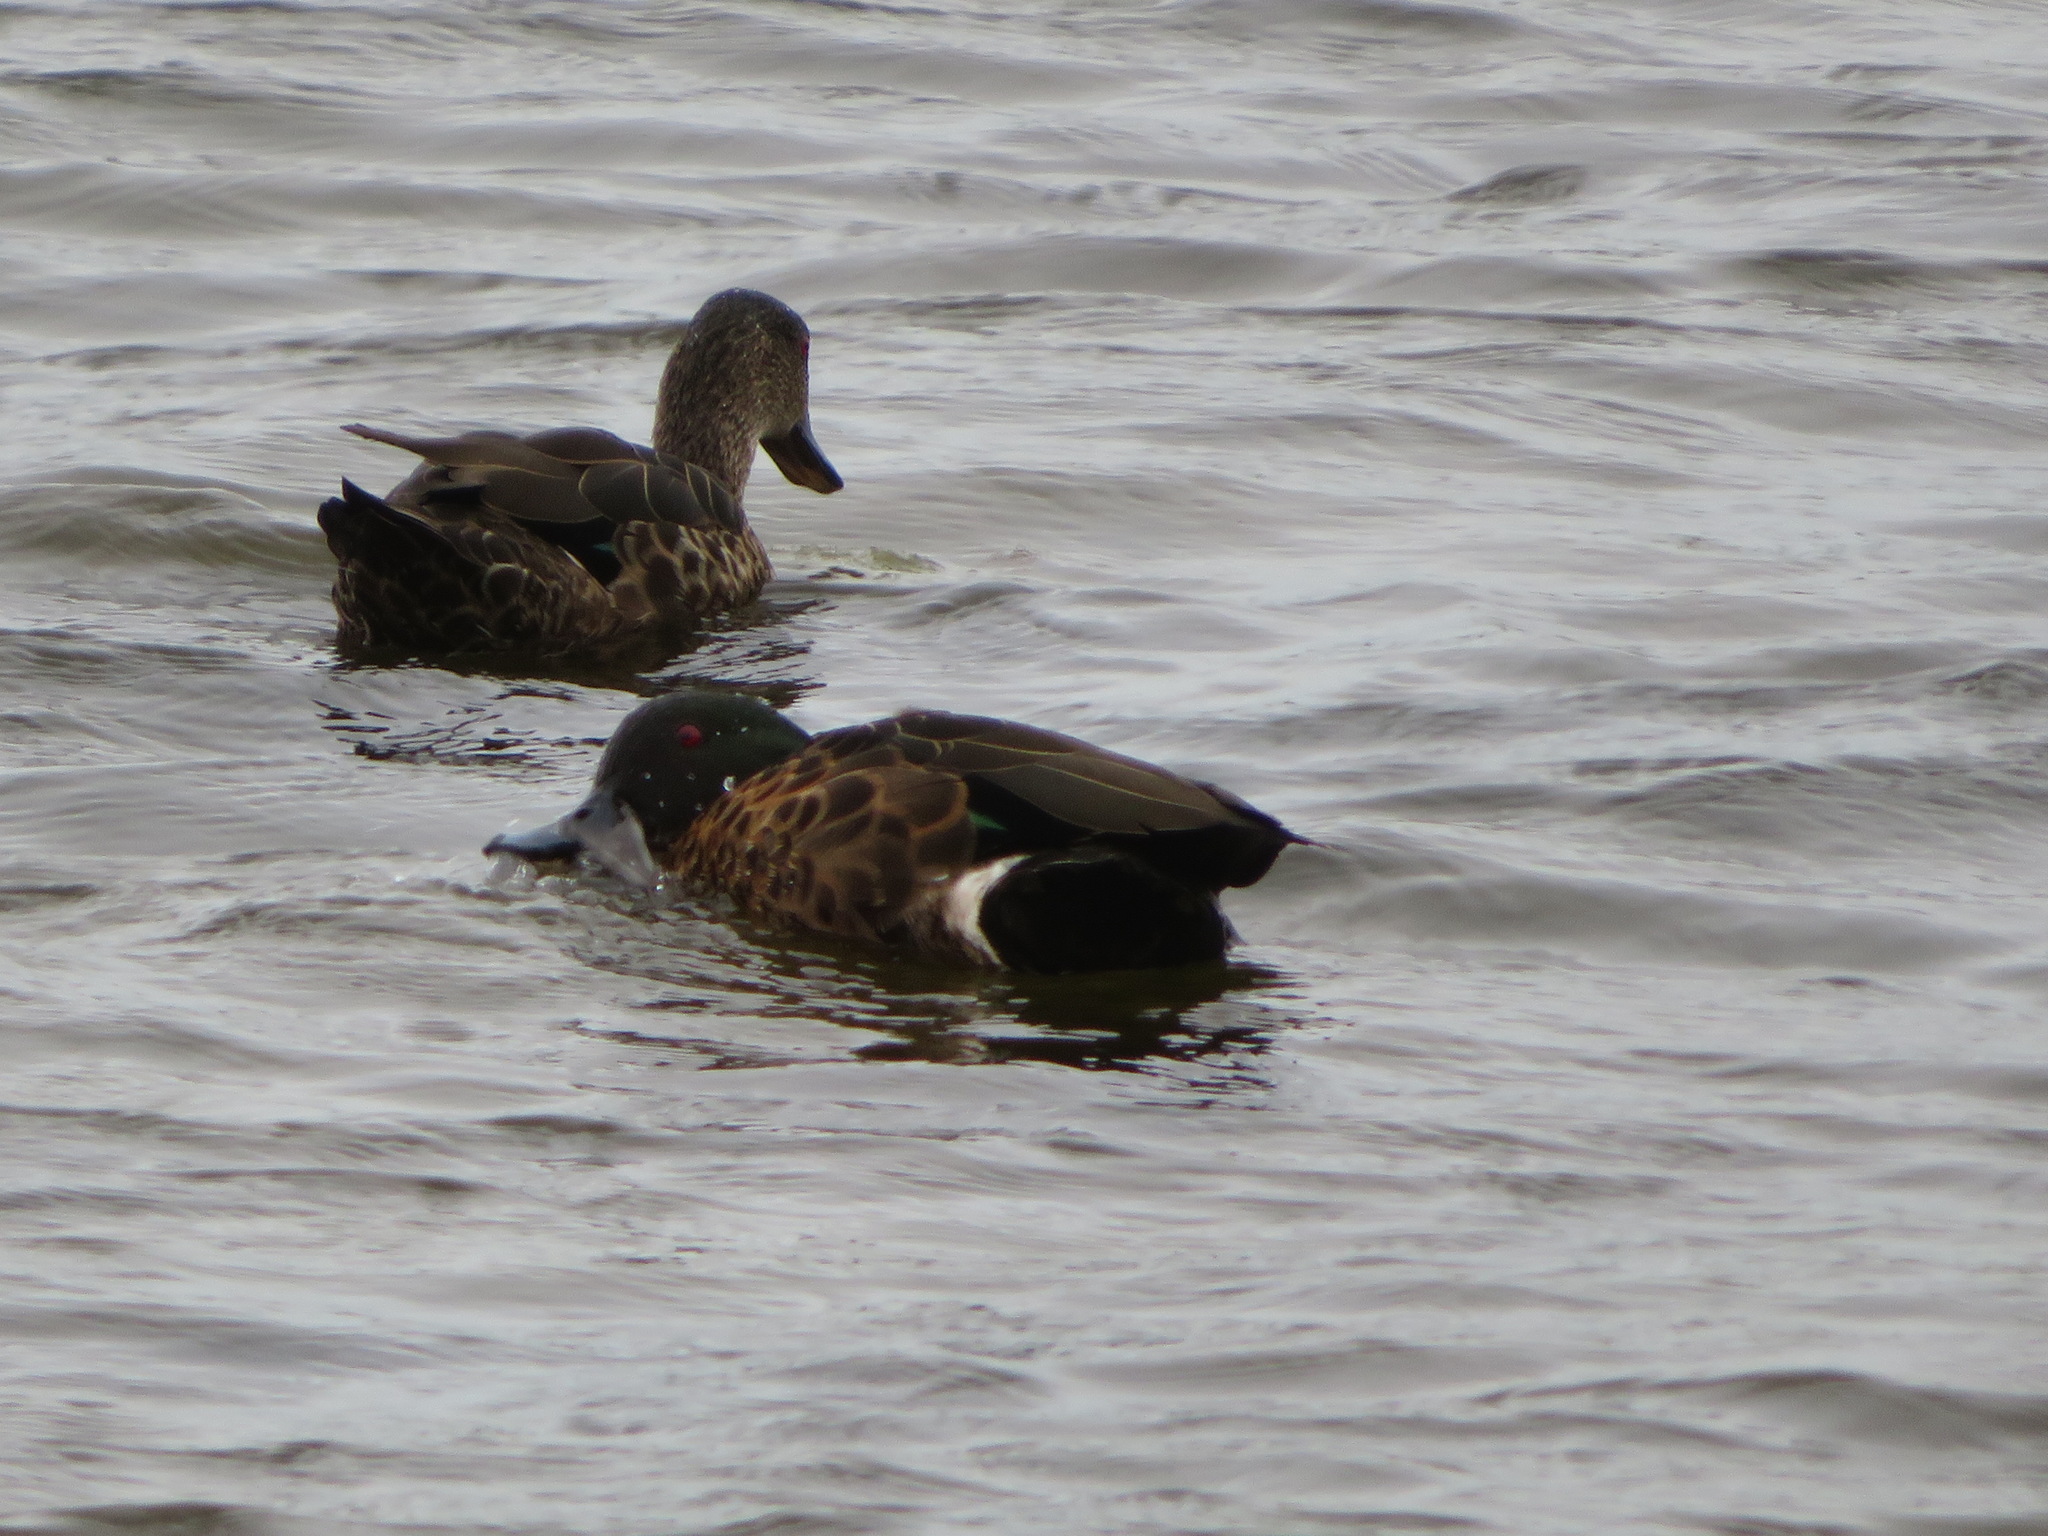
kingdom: Animalia
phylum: Chordata
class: Aves
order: Anseriformes
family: Anatidae
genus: Anas
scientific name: Anas castanea
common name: Chestnut teal
